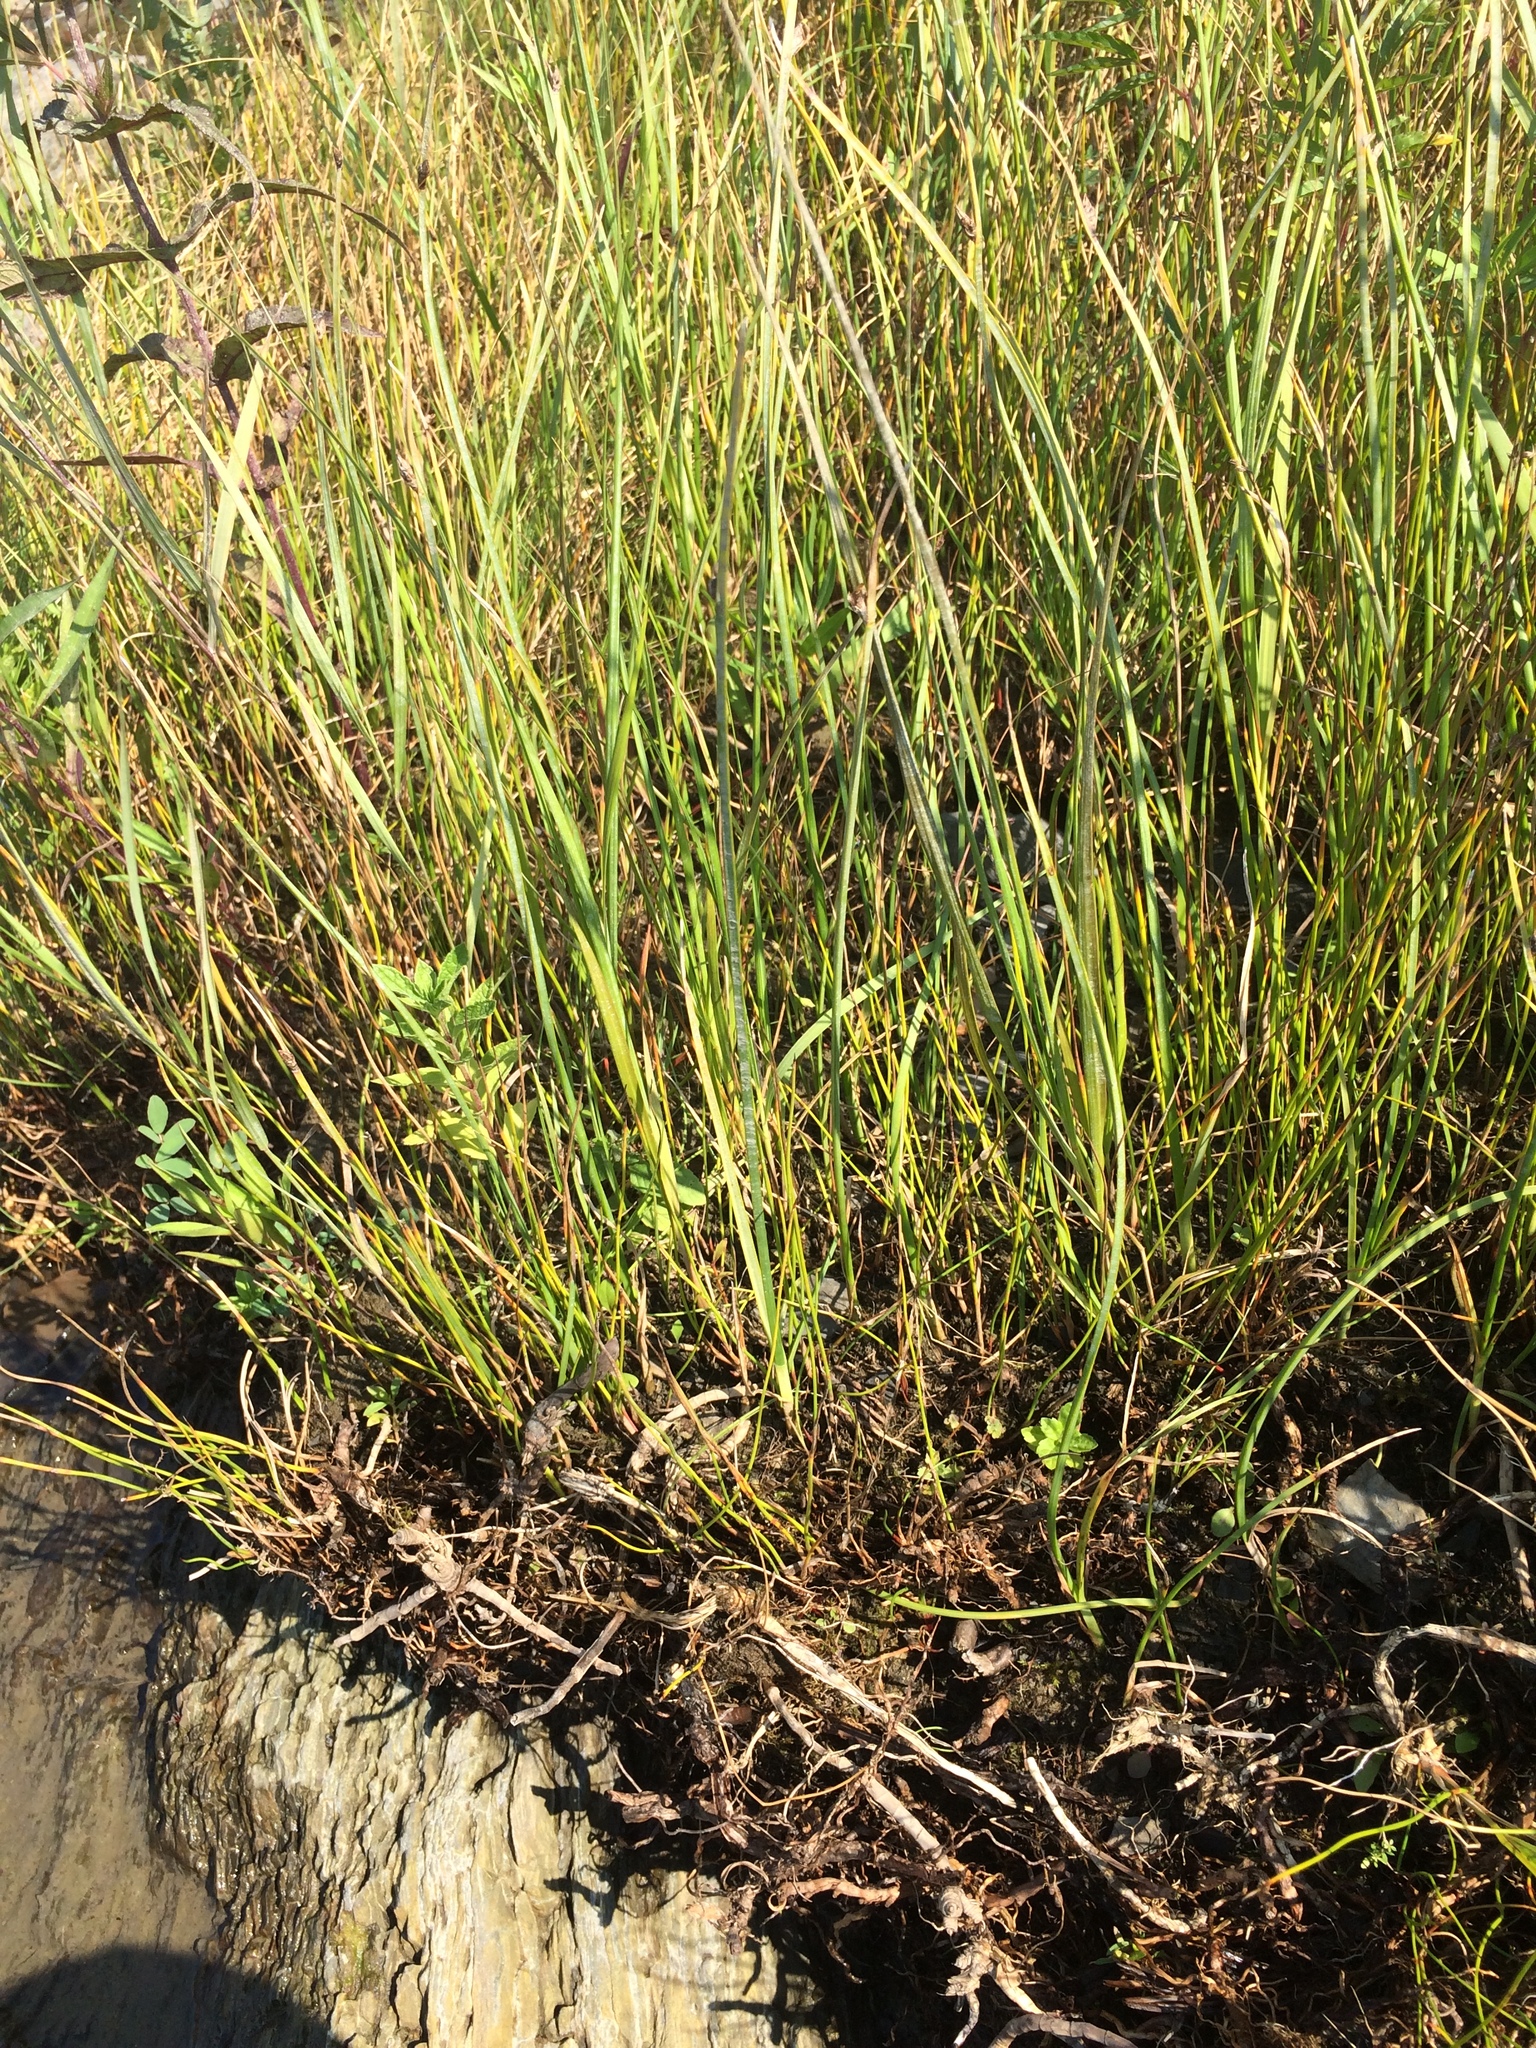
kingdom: Plantae
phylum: Tracheophyta
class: Liliopsida
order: Poales
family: Cyperaceae
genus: Schoenoplectus
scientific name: Schoenoplectus pungens
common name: Sharp club-rush
